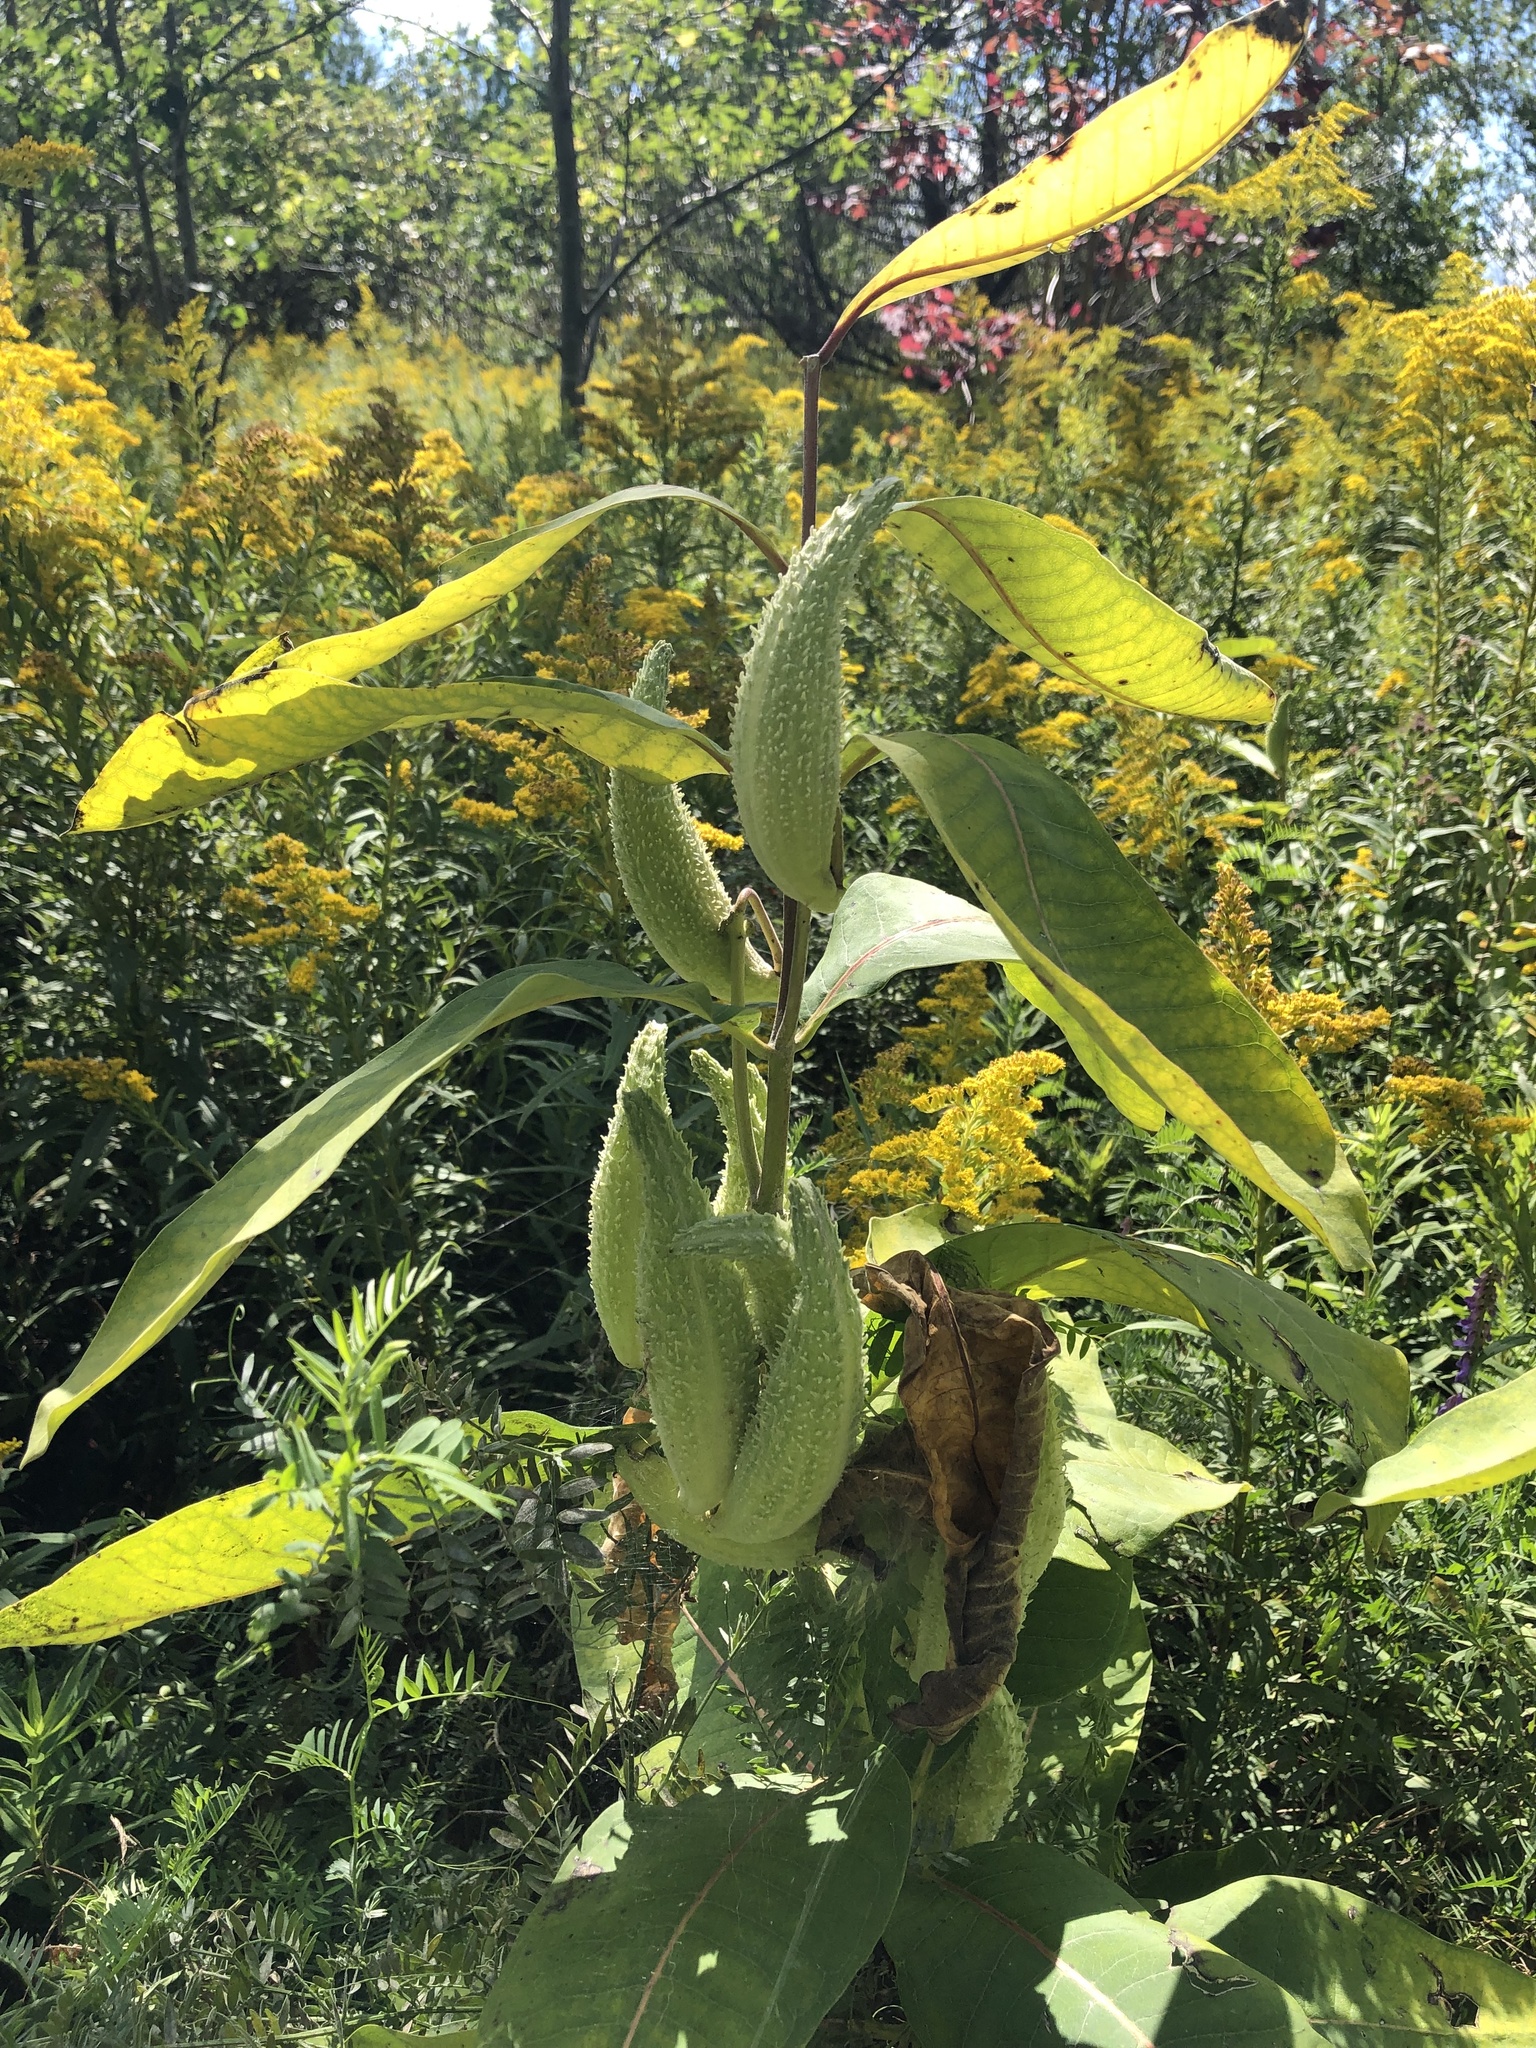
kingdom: Plantae
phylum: Tracheophyta
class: Magnoliopsida
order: Gentianales
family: Apocynaceae
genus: Asclepias
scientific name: Asclepias syriaca
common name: Common milkweed
